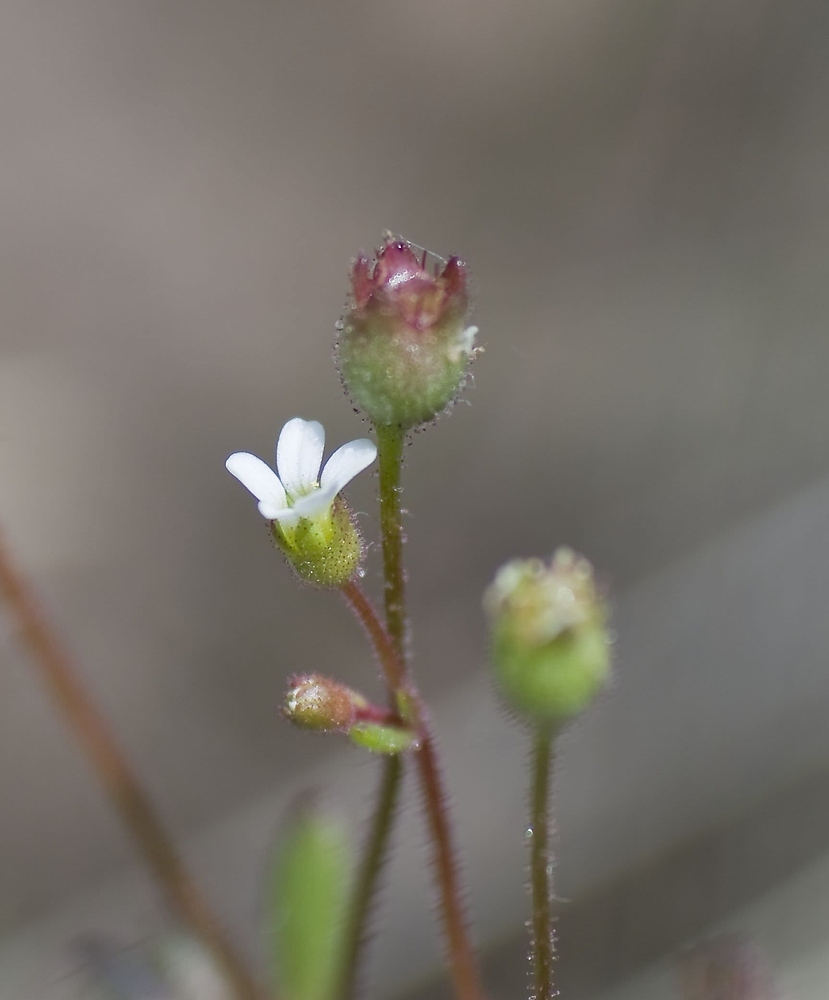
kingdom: Plantae
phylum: Tracheophyta
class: Magnoliopsida
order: Saxifragales
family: Saxifragaceae
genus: Saxifraga
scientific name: Saxifraga tridactylites
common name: Rue-leaved saxifrage
